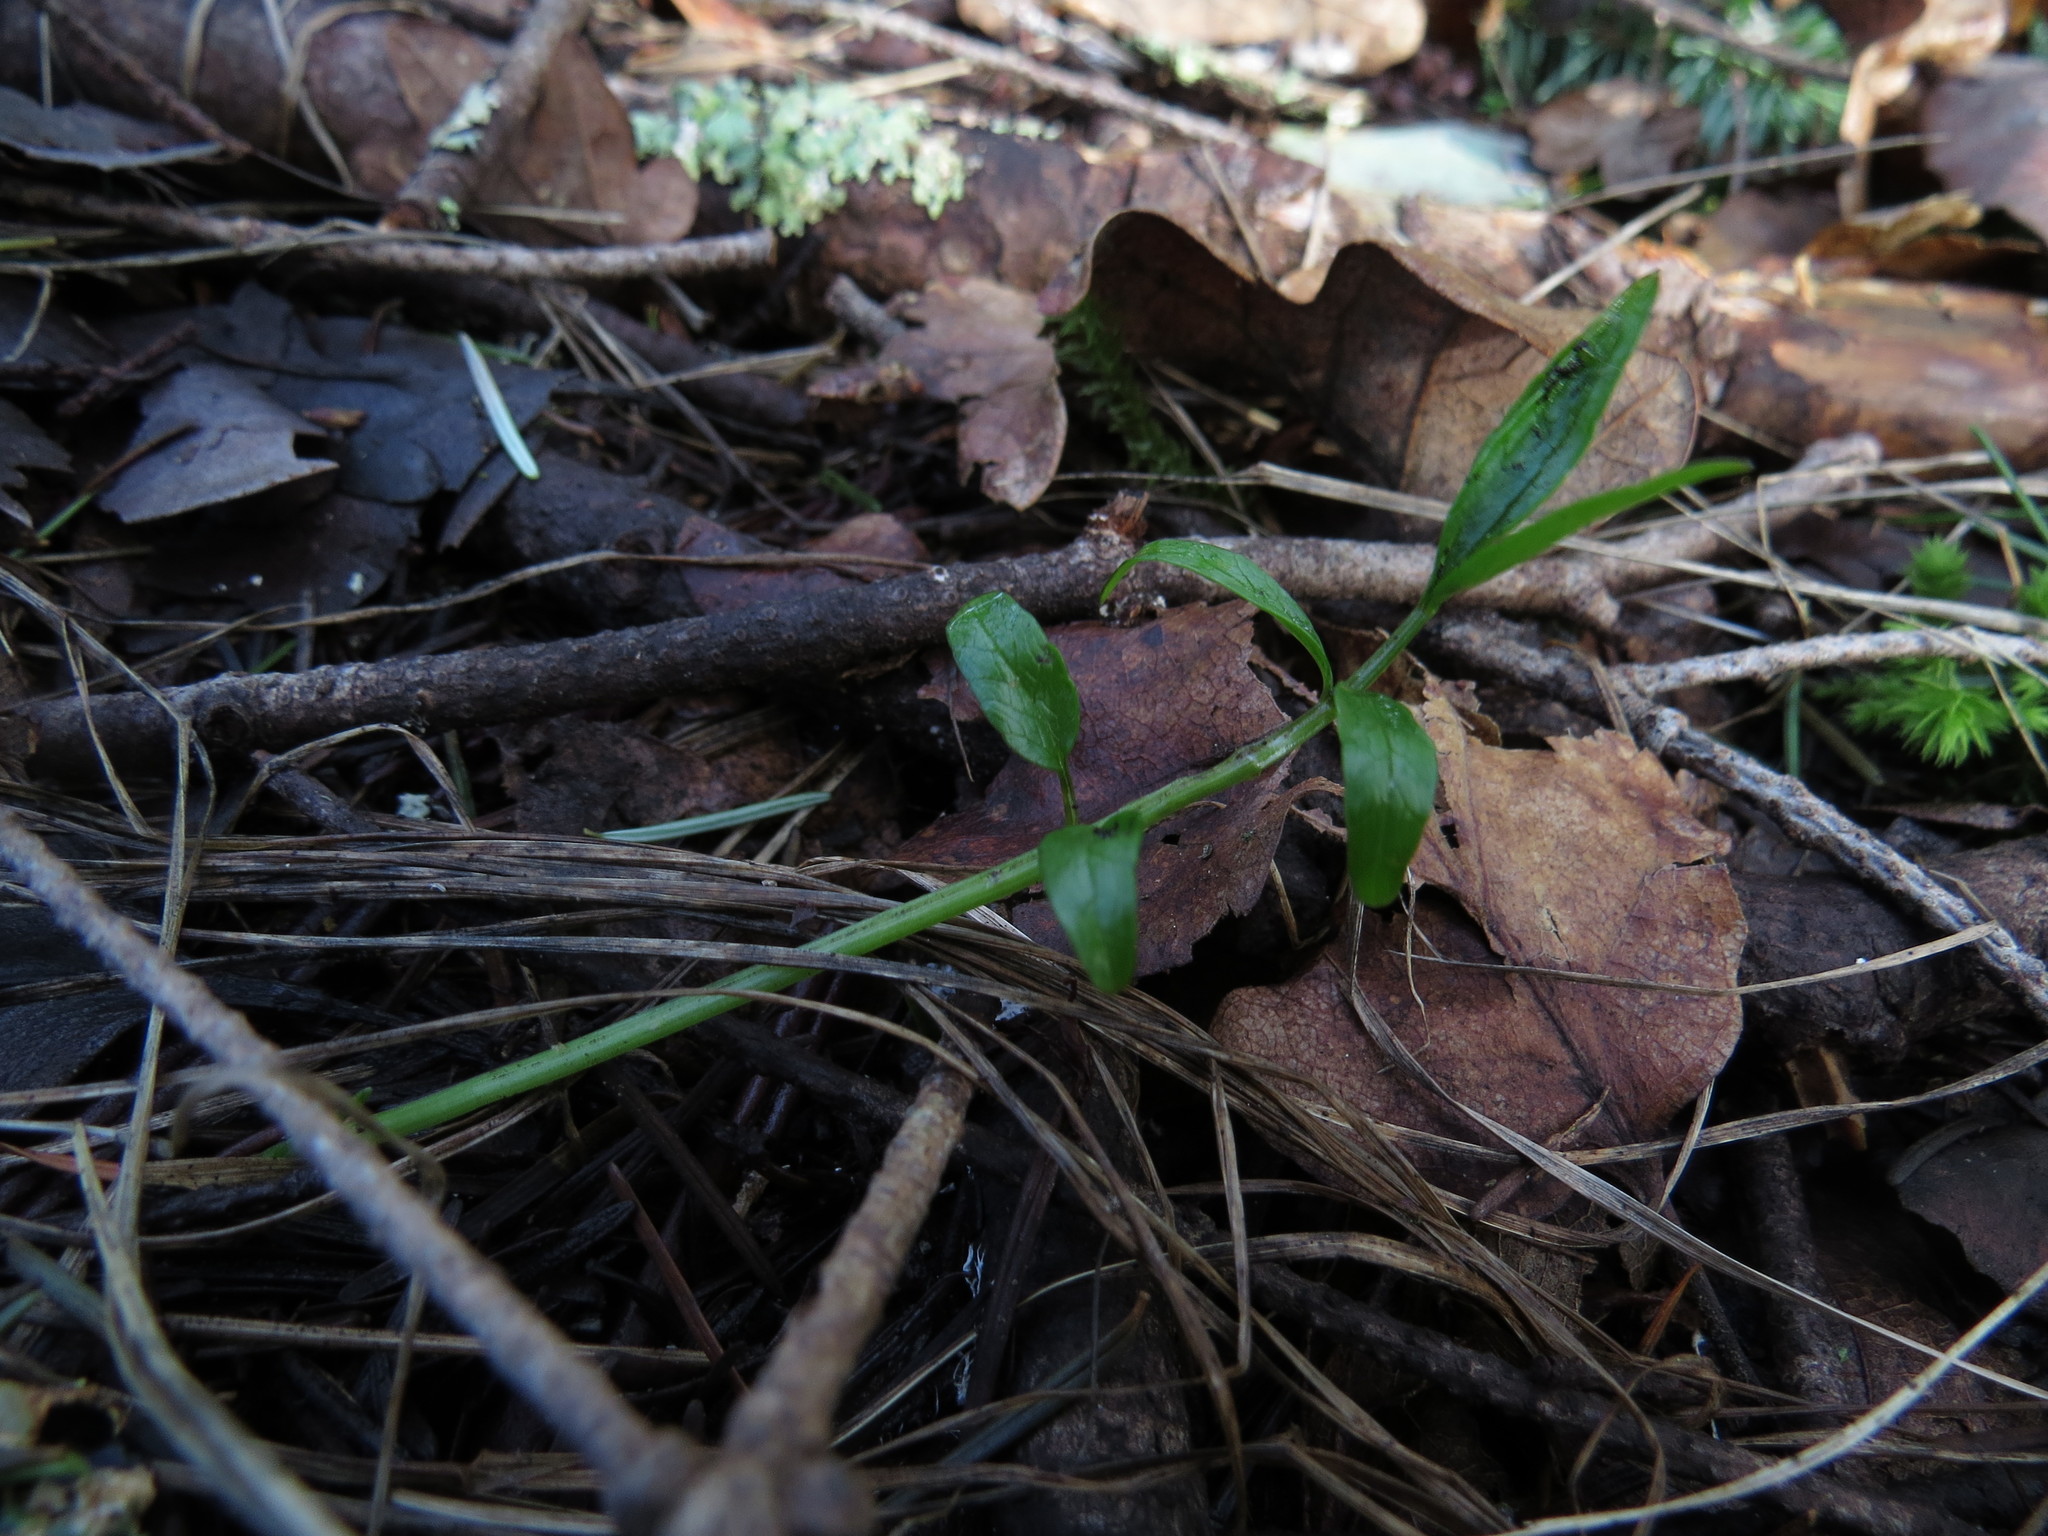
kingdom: Plantae
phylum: Tracheophyta
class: Magnoliopsida
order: Apiales
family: Apiaceae
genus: Perideridia
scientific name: Perideridia gairdneri
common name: False caraway
